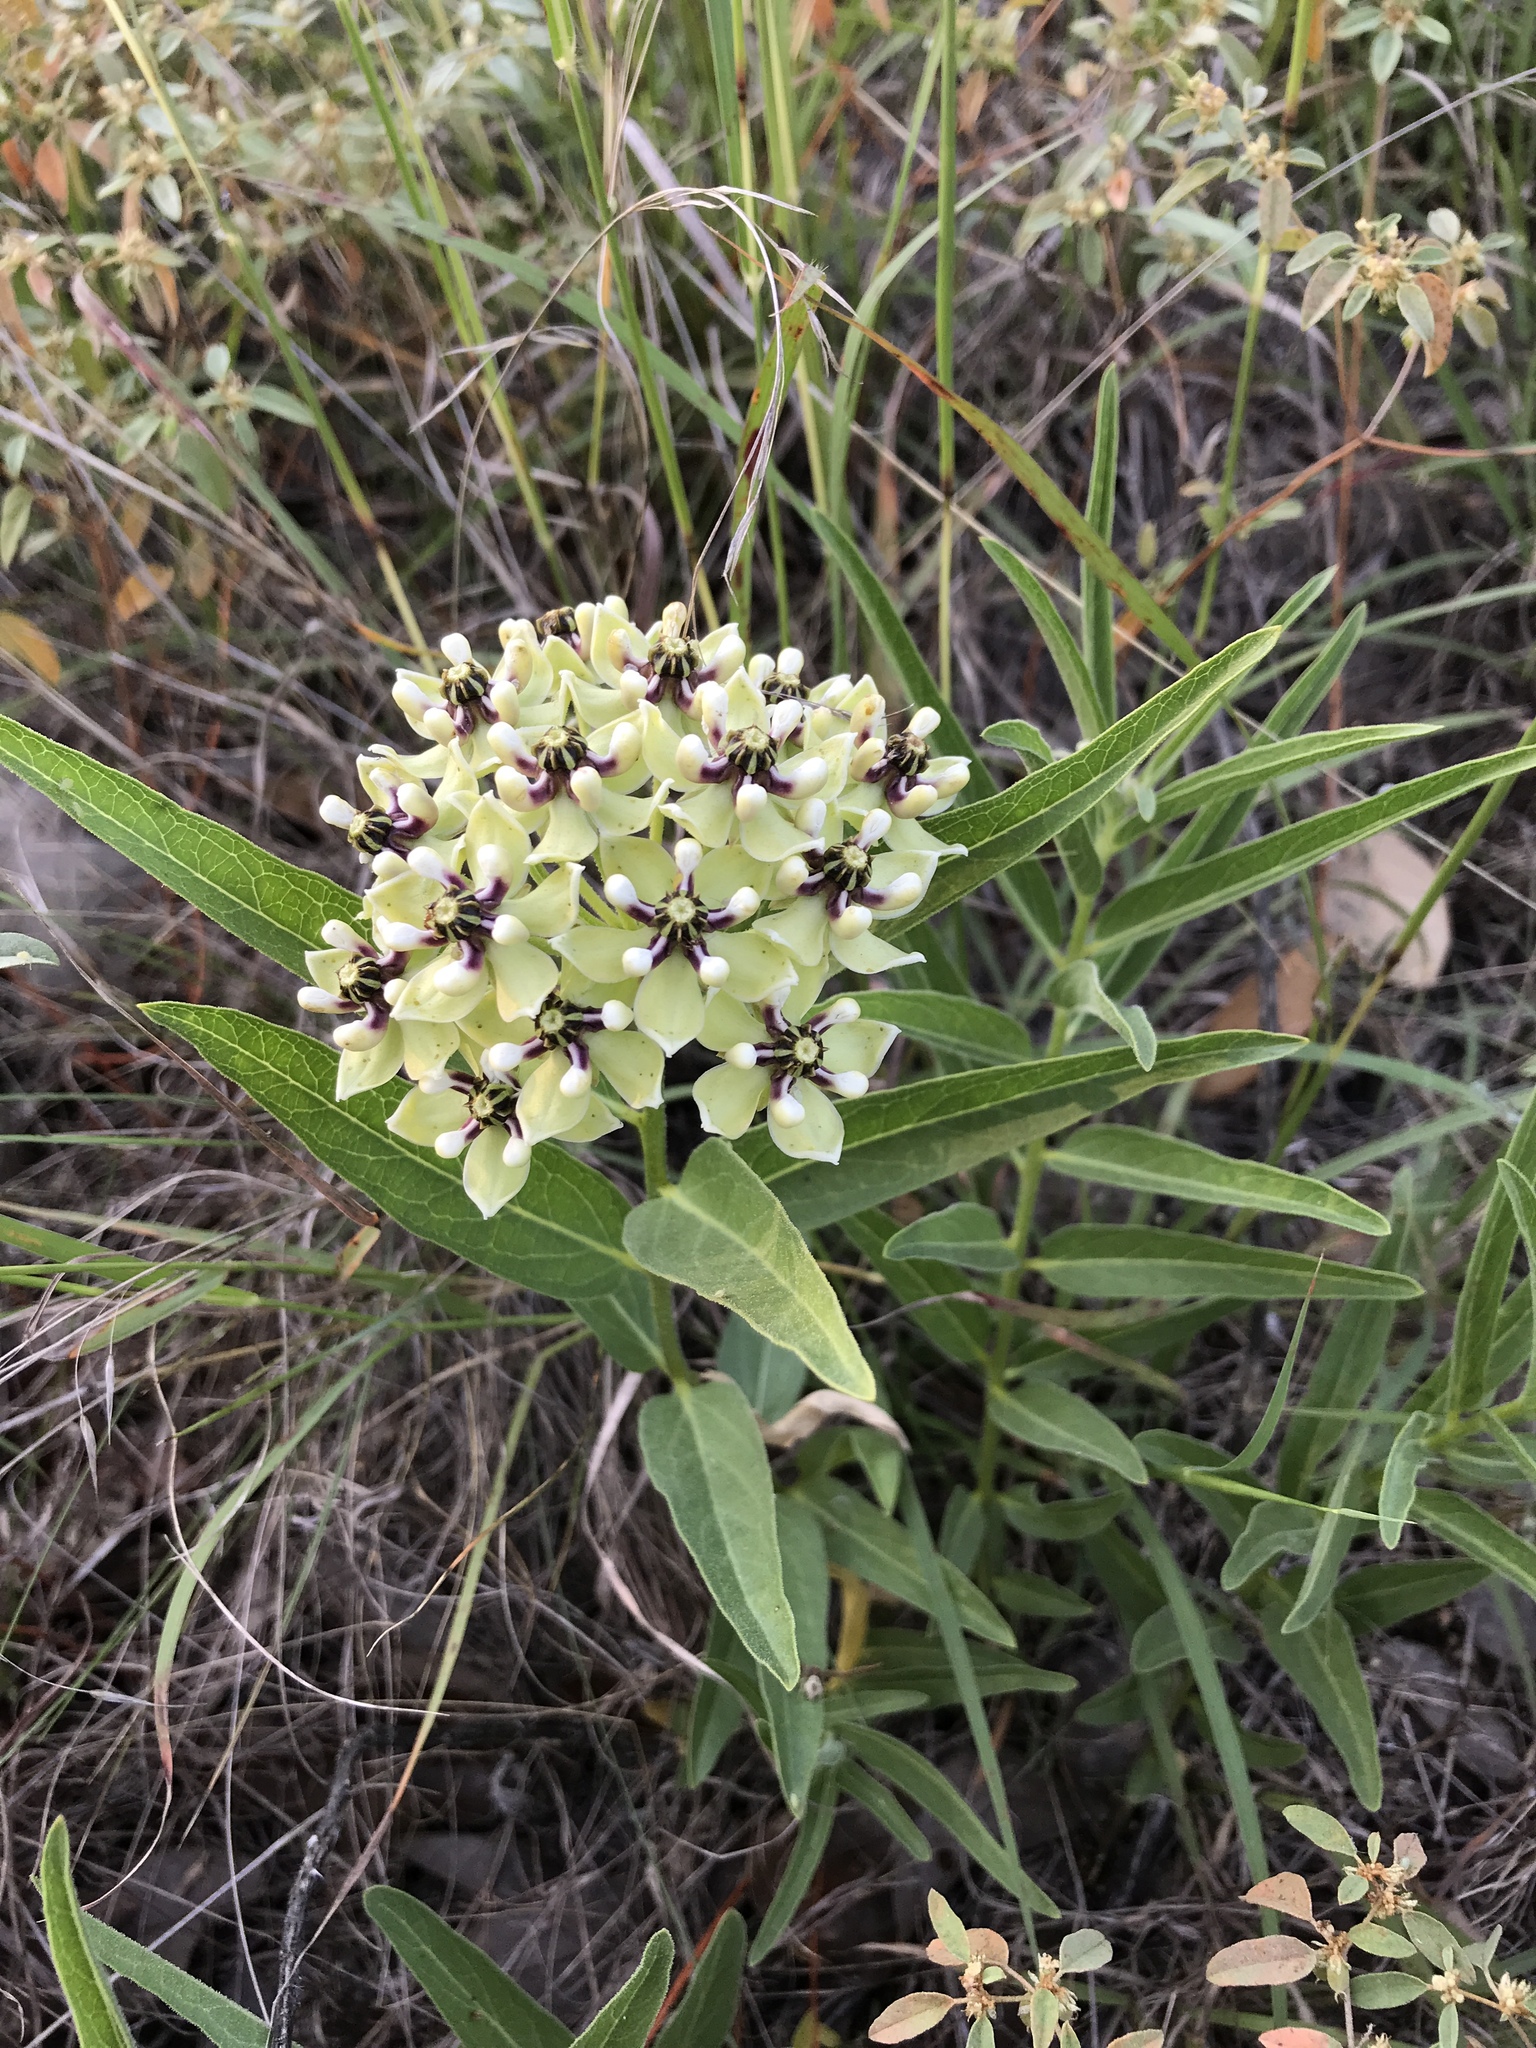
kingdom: Plantae
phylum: Tracheophyta
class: Magnoliopsida
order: Gentianales
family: Apocynaceae
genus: Asclepias
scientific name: Asclepias asperula
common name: Antelope horns
